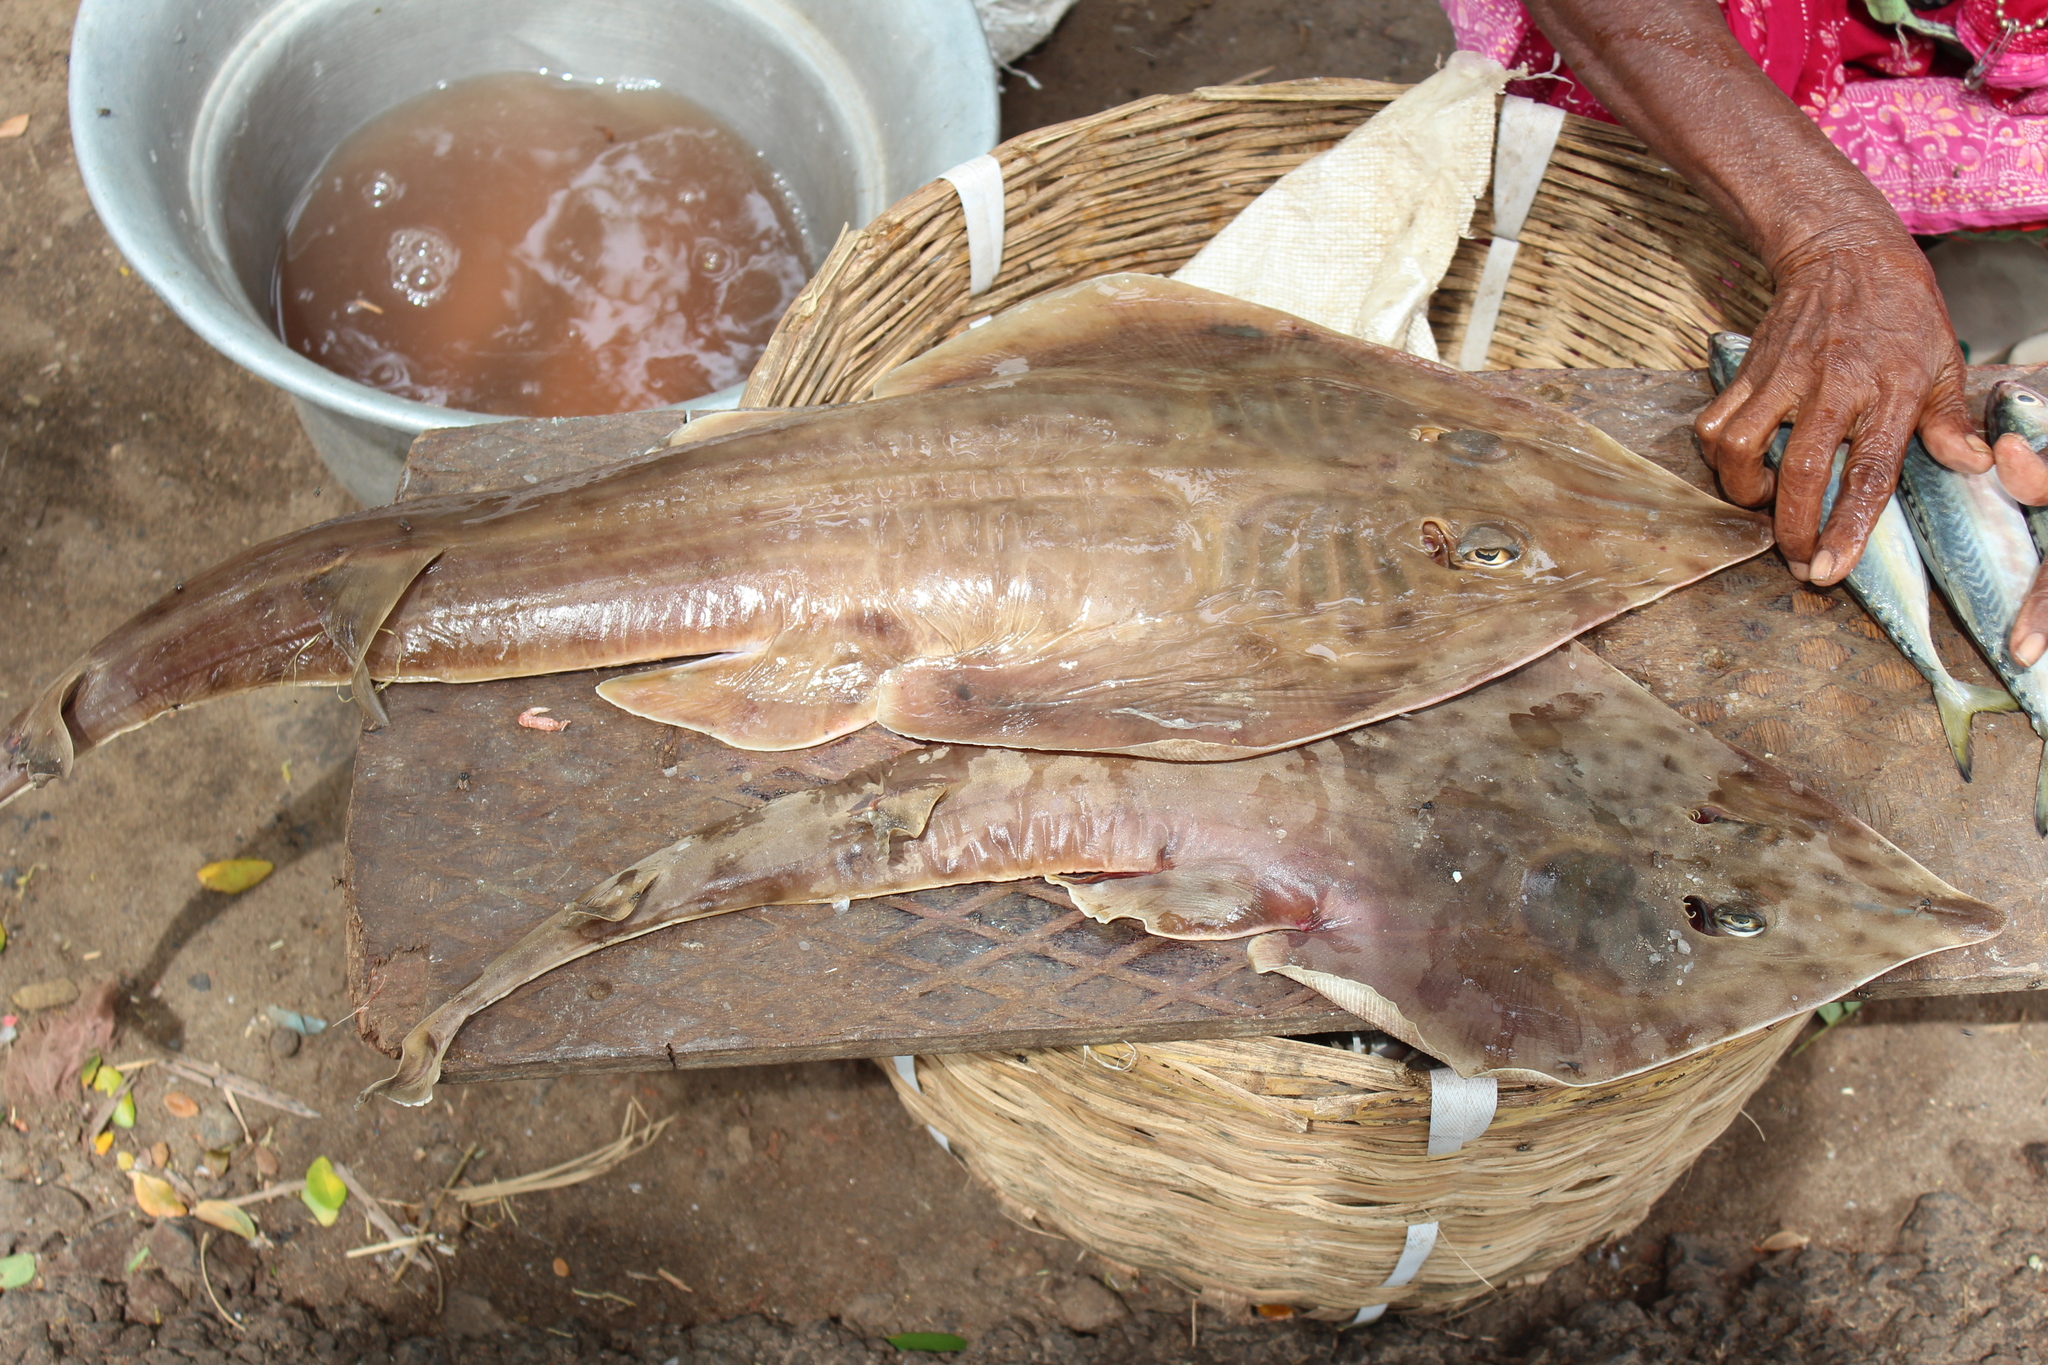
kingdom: Animalia
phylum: Chordata
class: Elasmobranchii
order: Rhinopristiformes
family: Rhinobatidae
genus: Rhinobatos
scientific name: Rhinobatos lionotus
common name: Smoothback guitarfish
